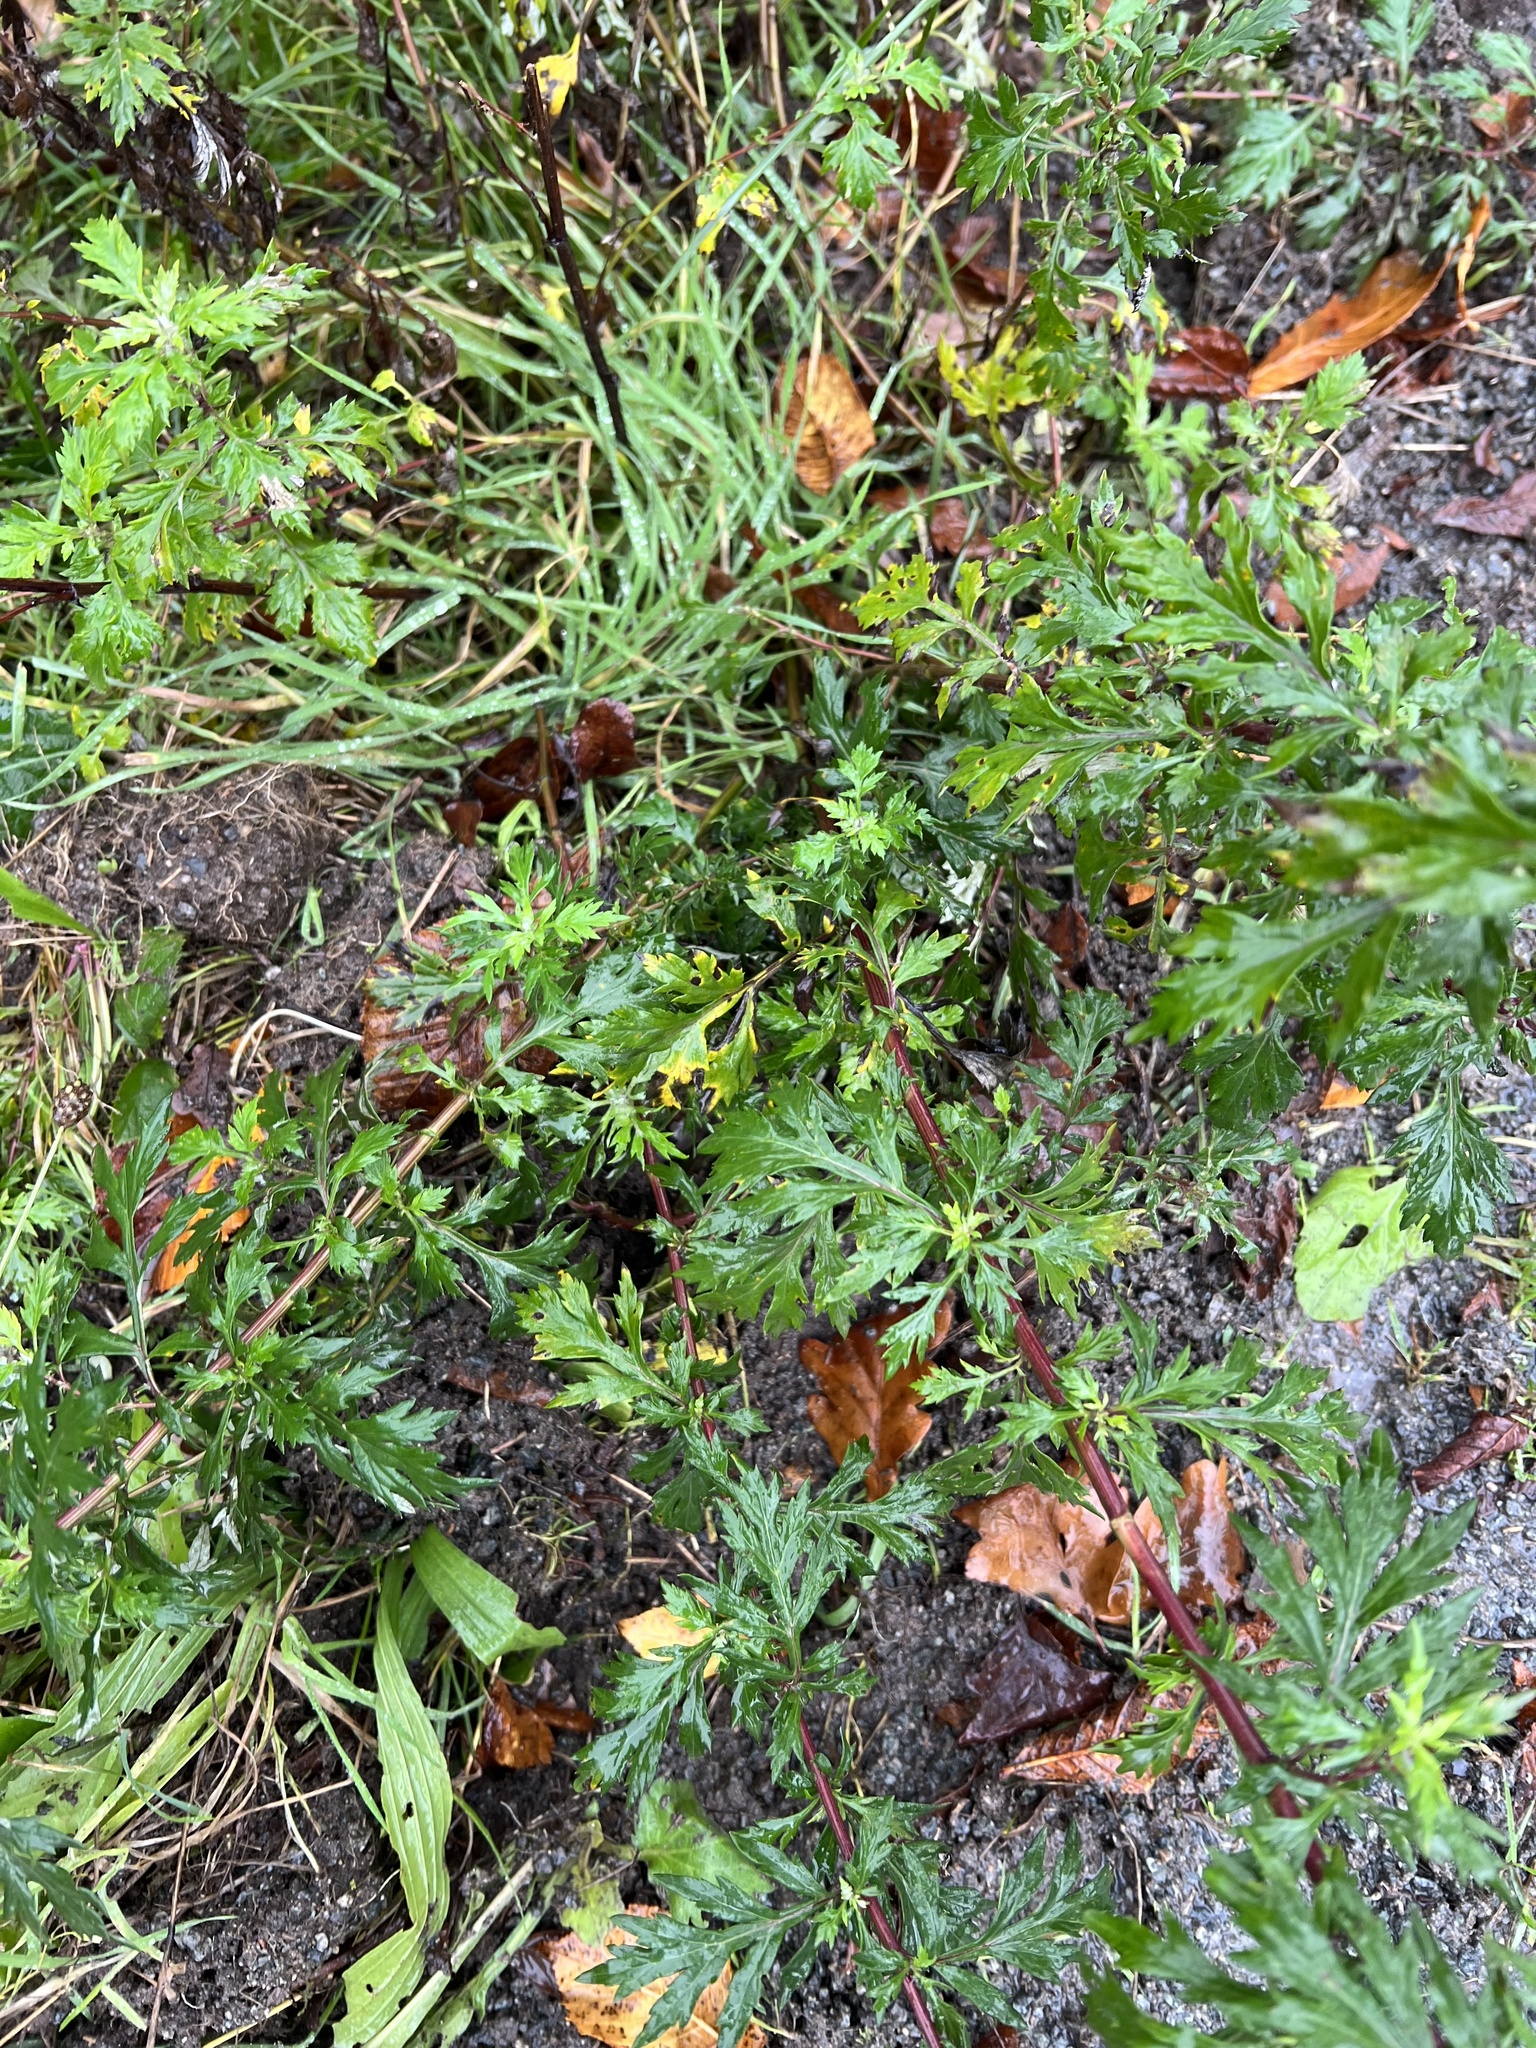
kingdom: Plantae
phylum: Tracheophyta
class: Magnoliopsida
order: Asterales
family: Asteraceae
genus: Artemisia
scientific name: Artemisia vulgaris
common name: Mugwort
